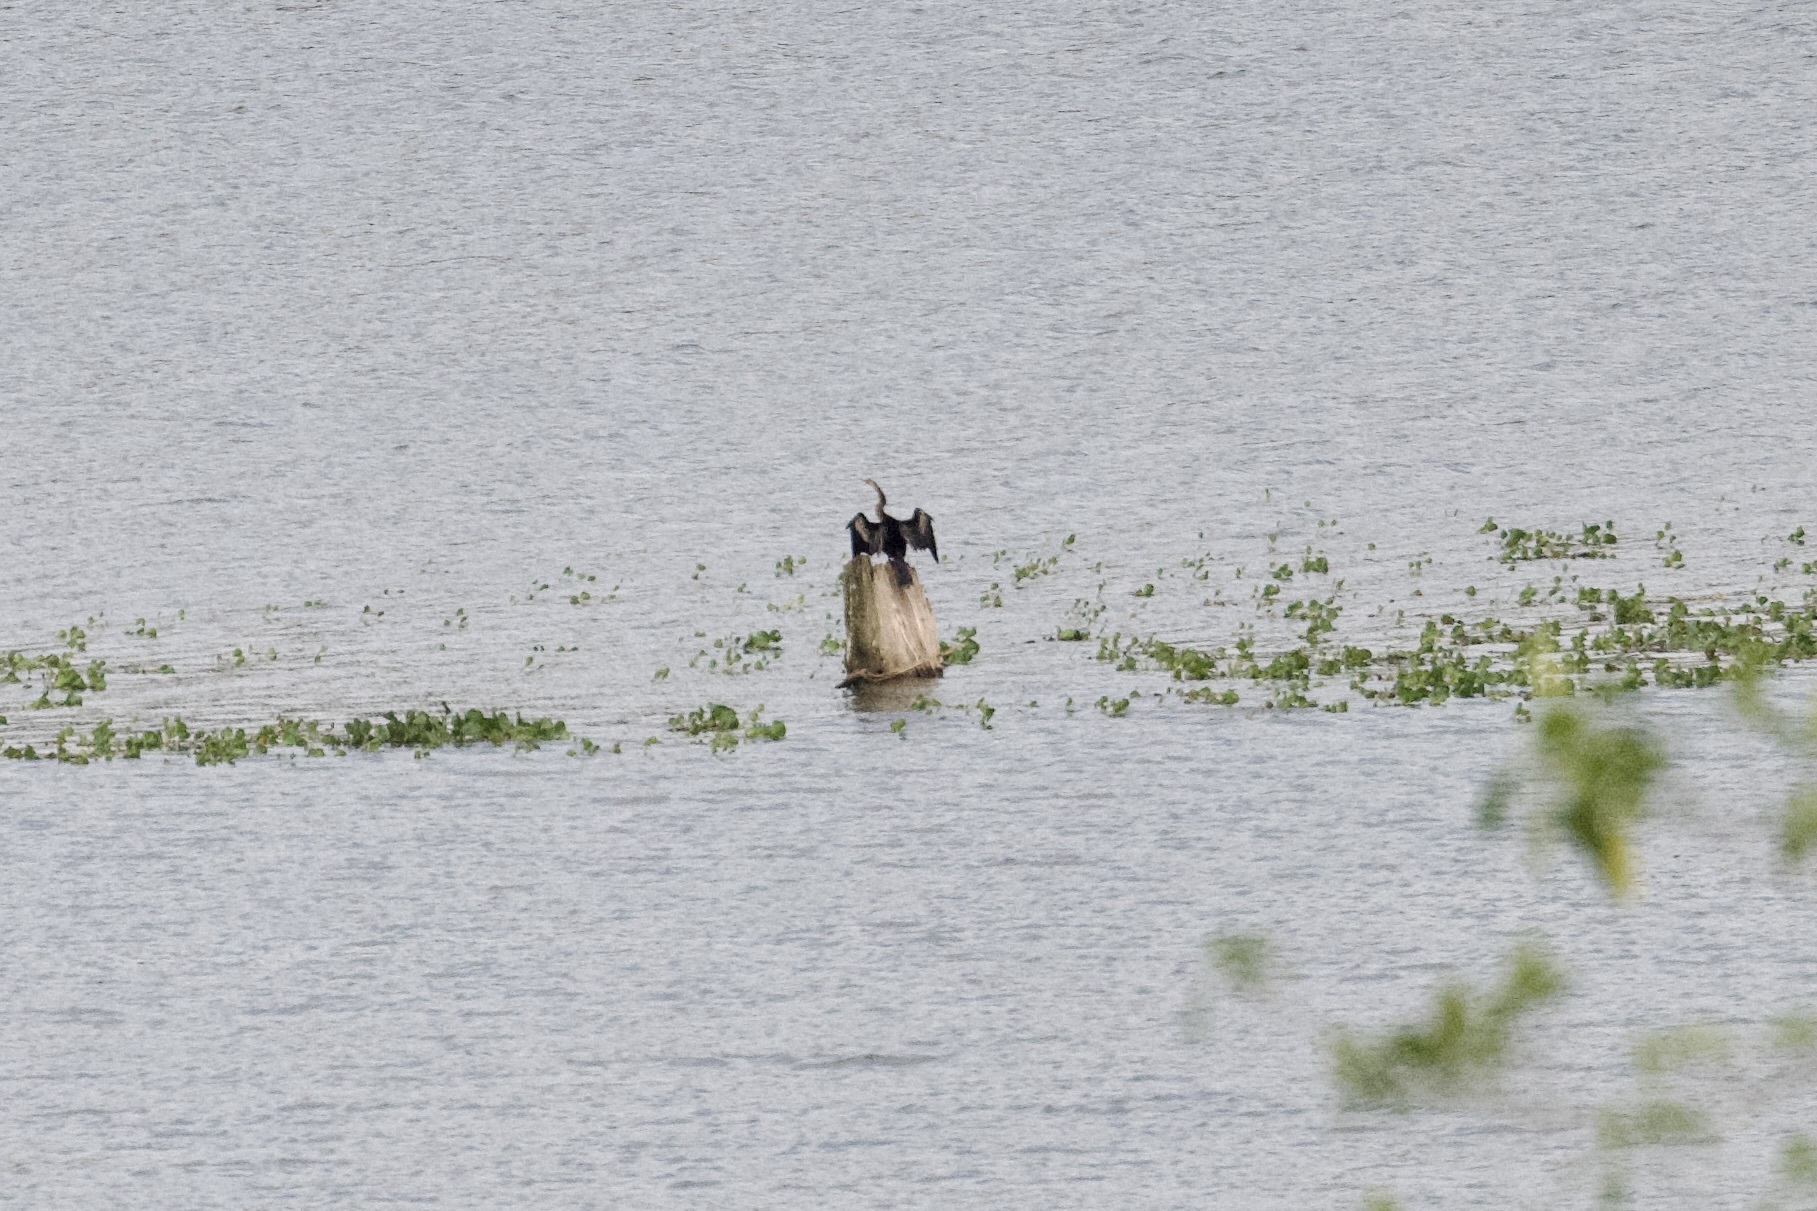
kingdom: Animalia
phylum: Chordata
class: Aves
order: Suliformes
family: Anhingidae
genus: Anhinga
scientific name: Anhinga anhinga
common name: Anhinga
